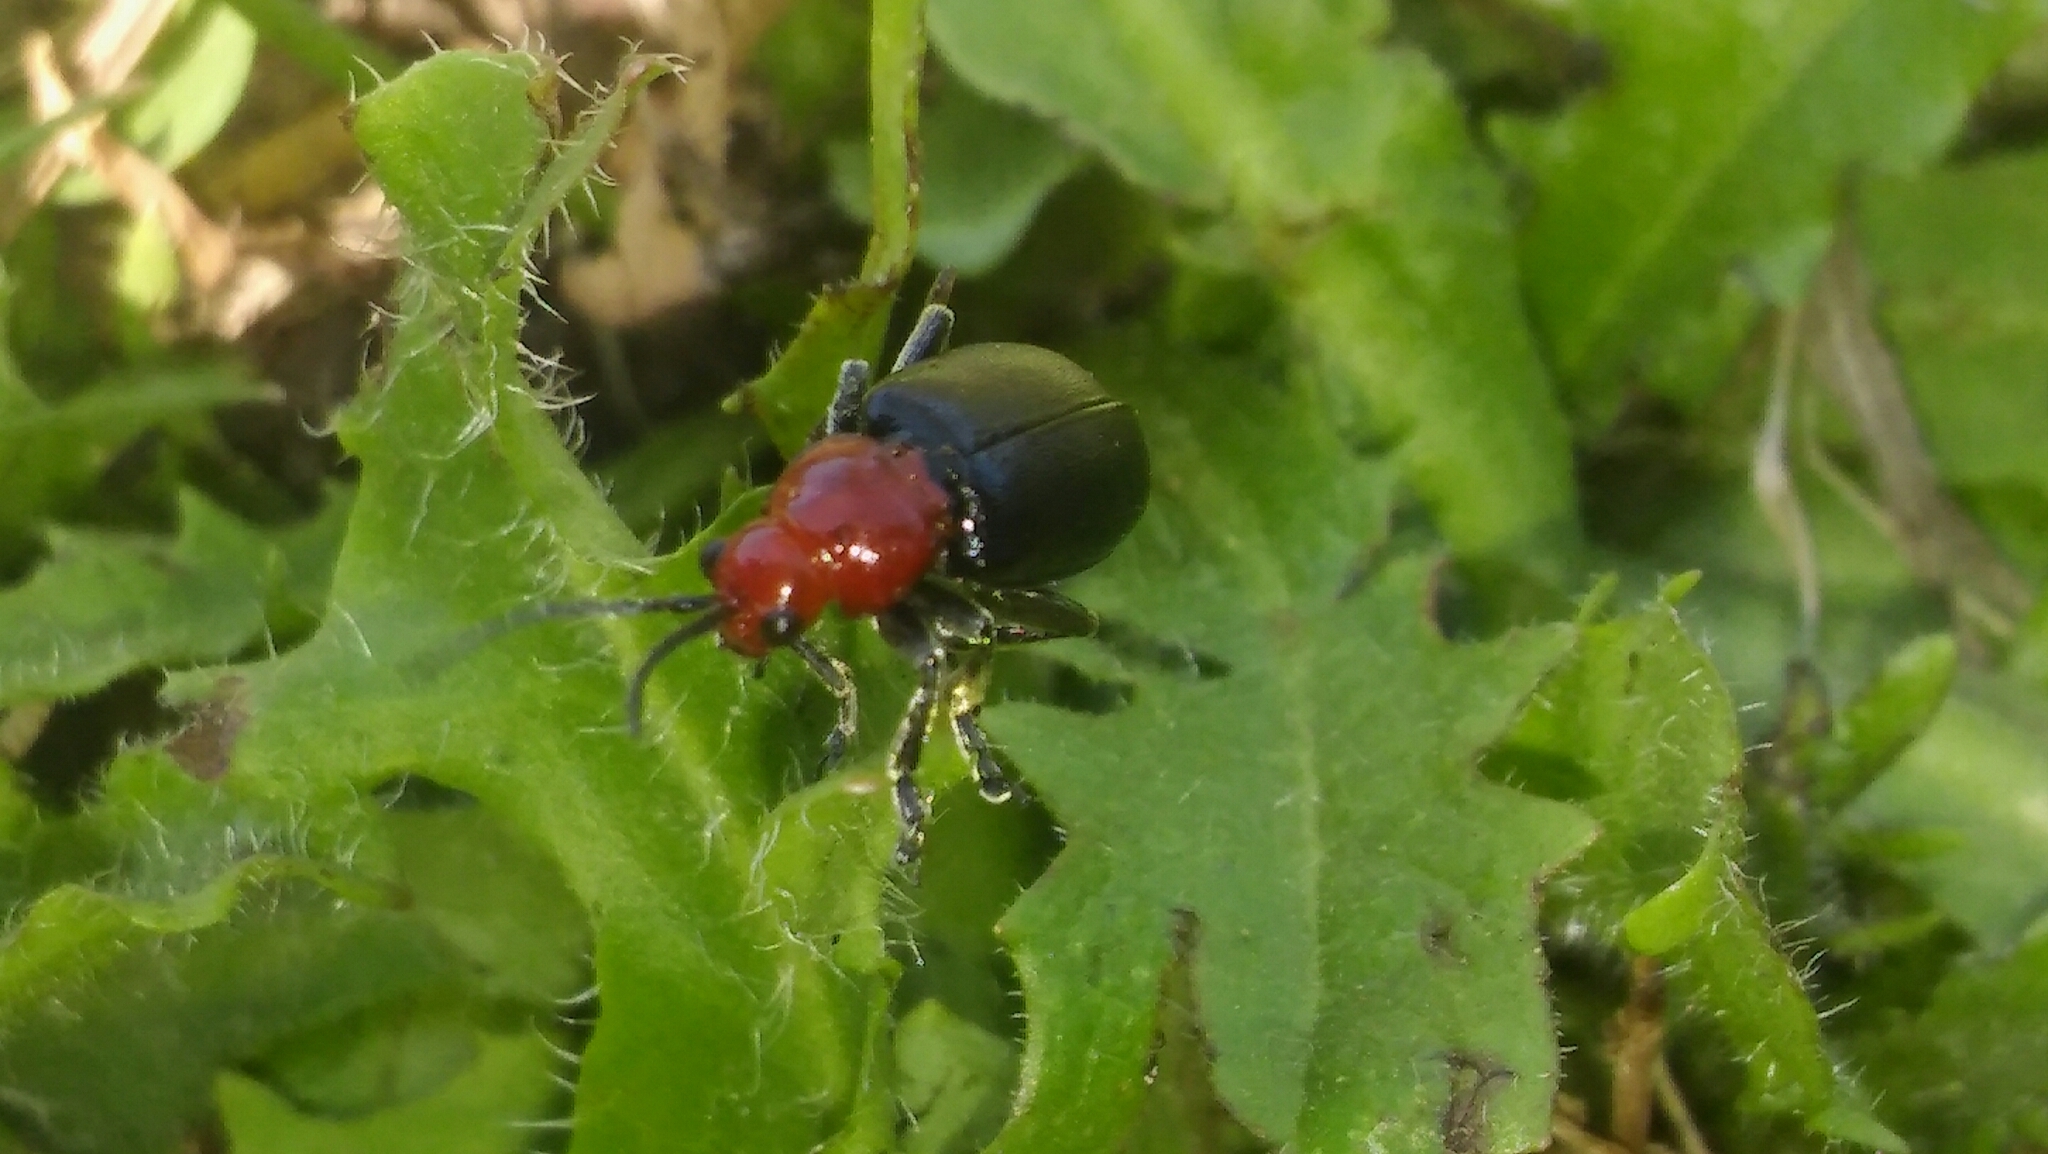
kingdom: Animalia
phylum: Arthropoda
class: Insecta
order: Coleoptera
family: Chrysomelidae
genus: Cacoscelis
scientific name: Cacoscelis
